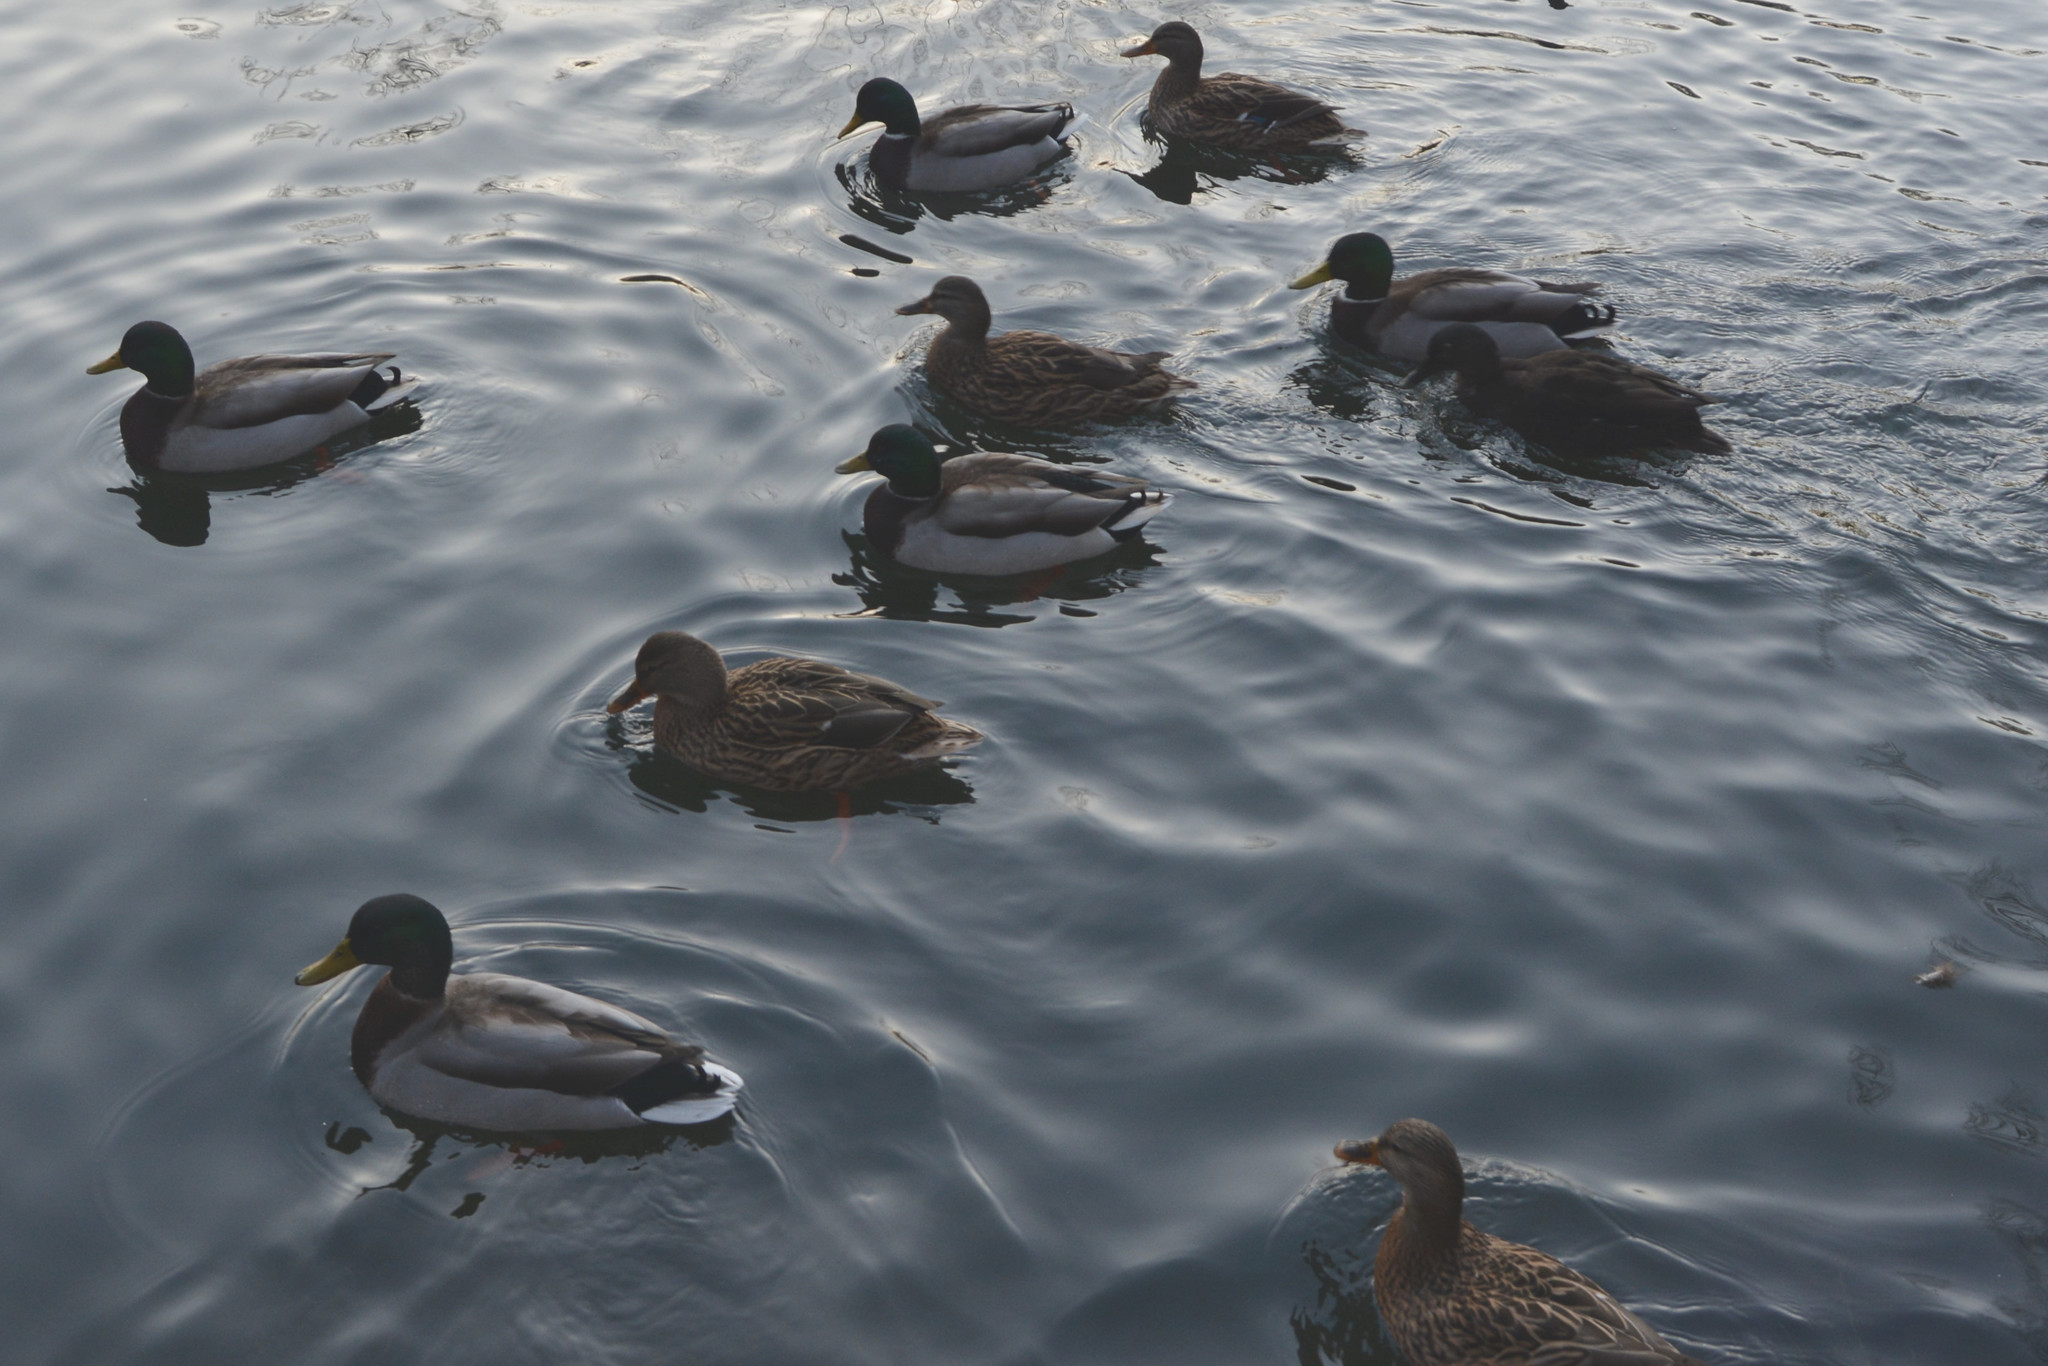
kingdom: Animalia
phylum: Chordata
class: Aves
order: Anseriformes
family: Anatidae
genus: Anas
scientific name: Anas platyrhynchos
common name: Mallard
